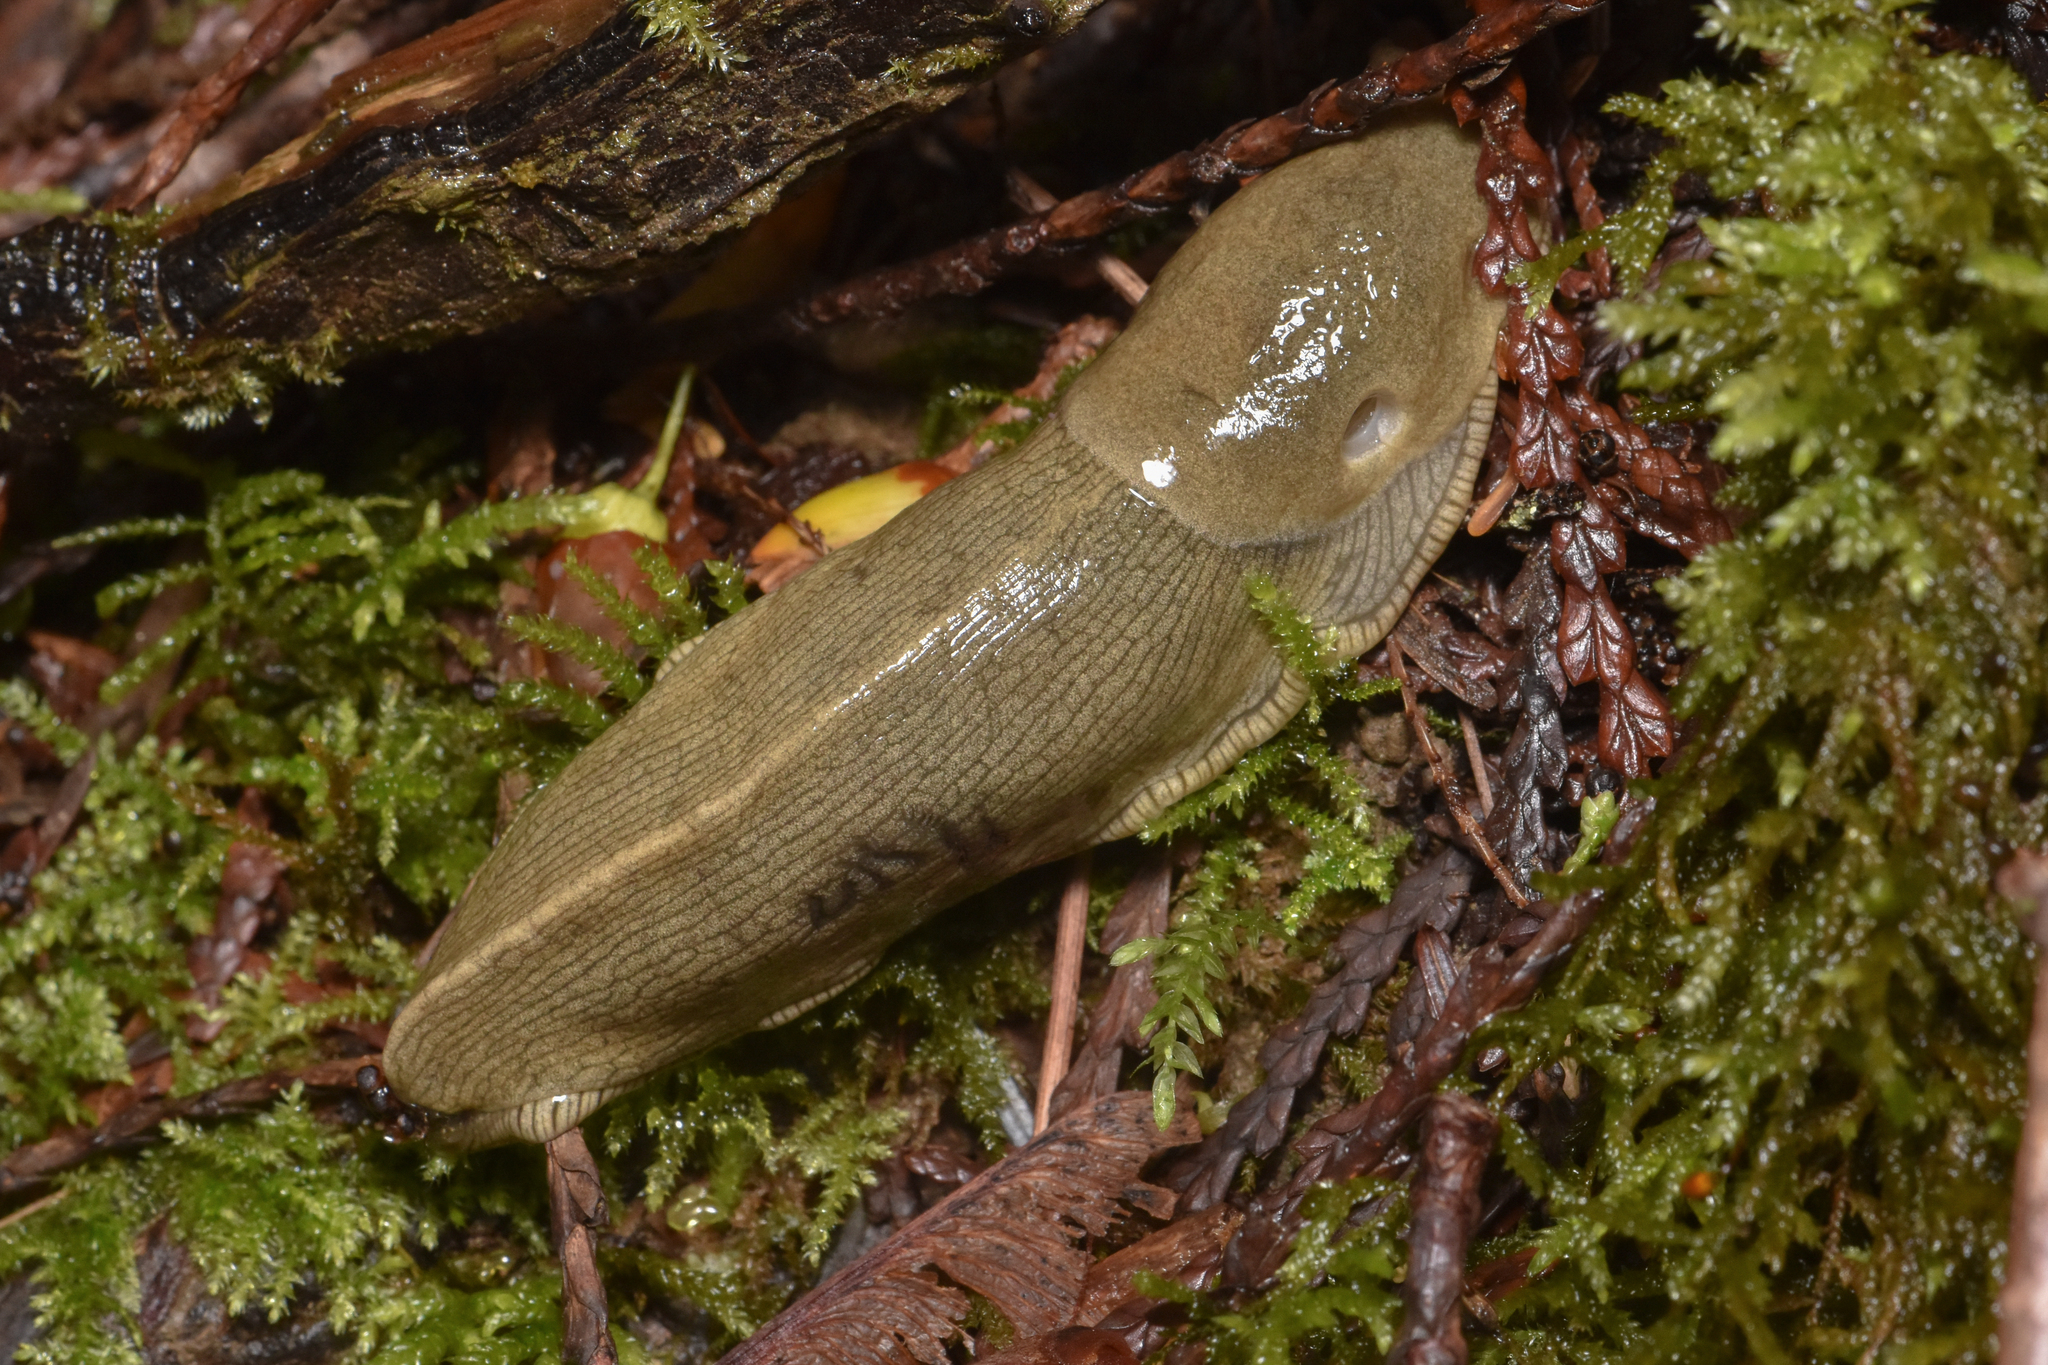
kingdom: Animalia
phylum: Mollusca
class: Gastropoda
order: Stylommatophora
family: Ariolimacidae
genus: Ariolimax
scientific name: Ariolimax columbianus
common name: Pacific banana slug
